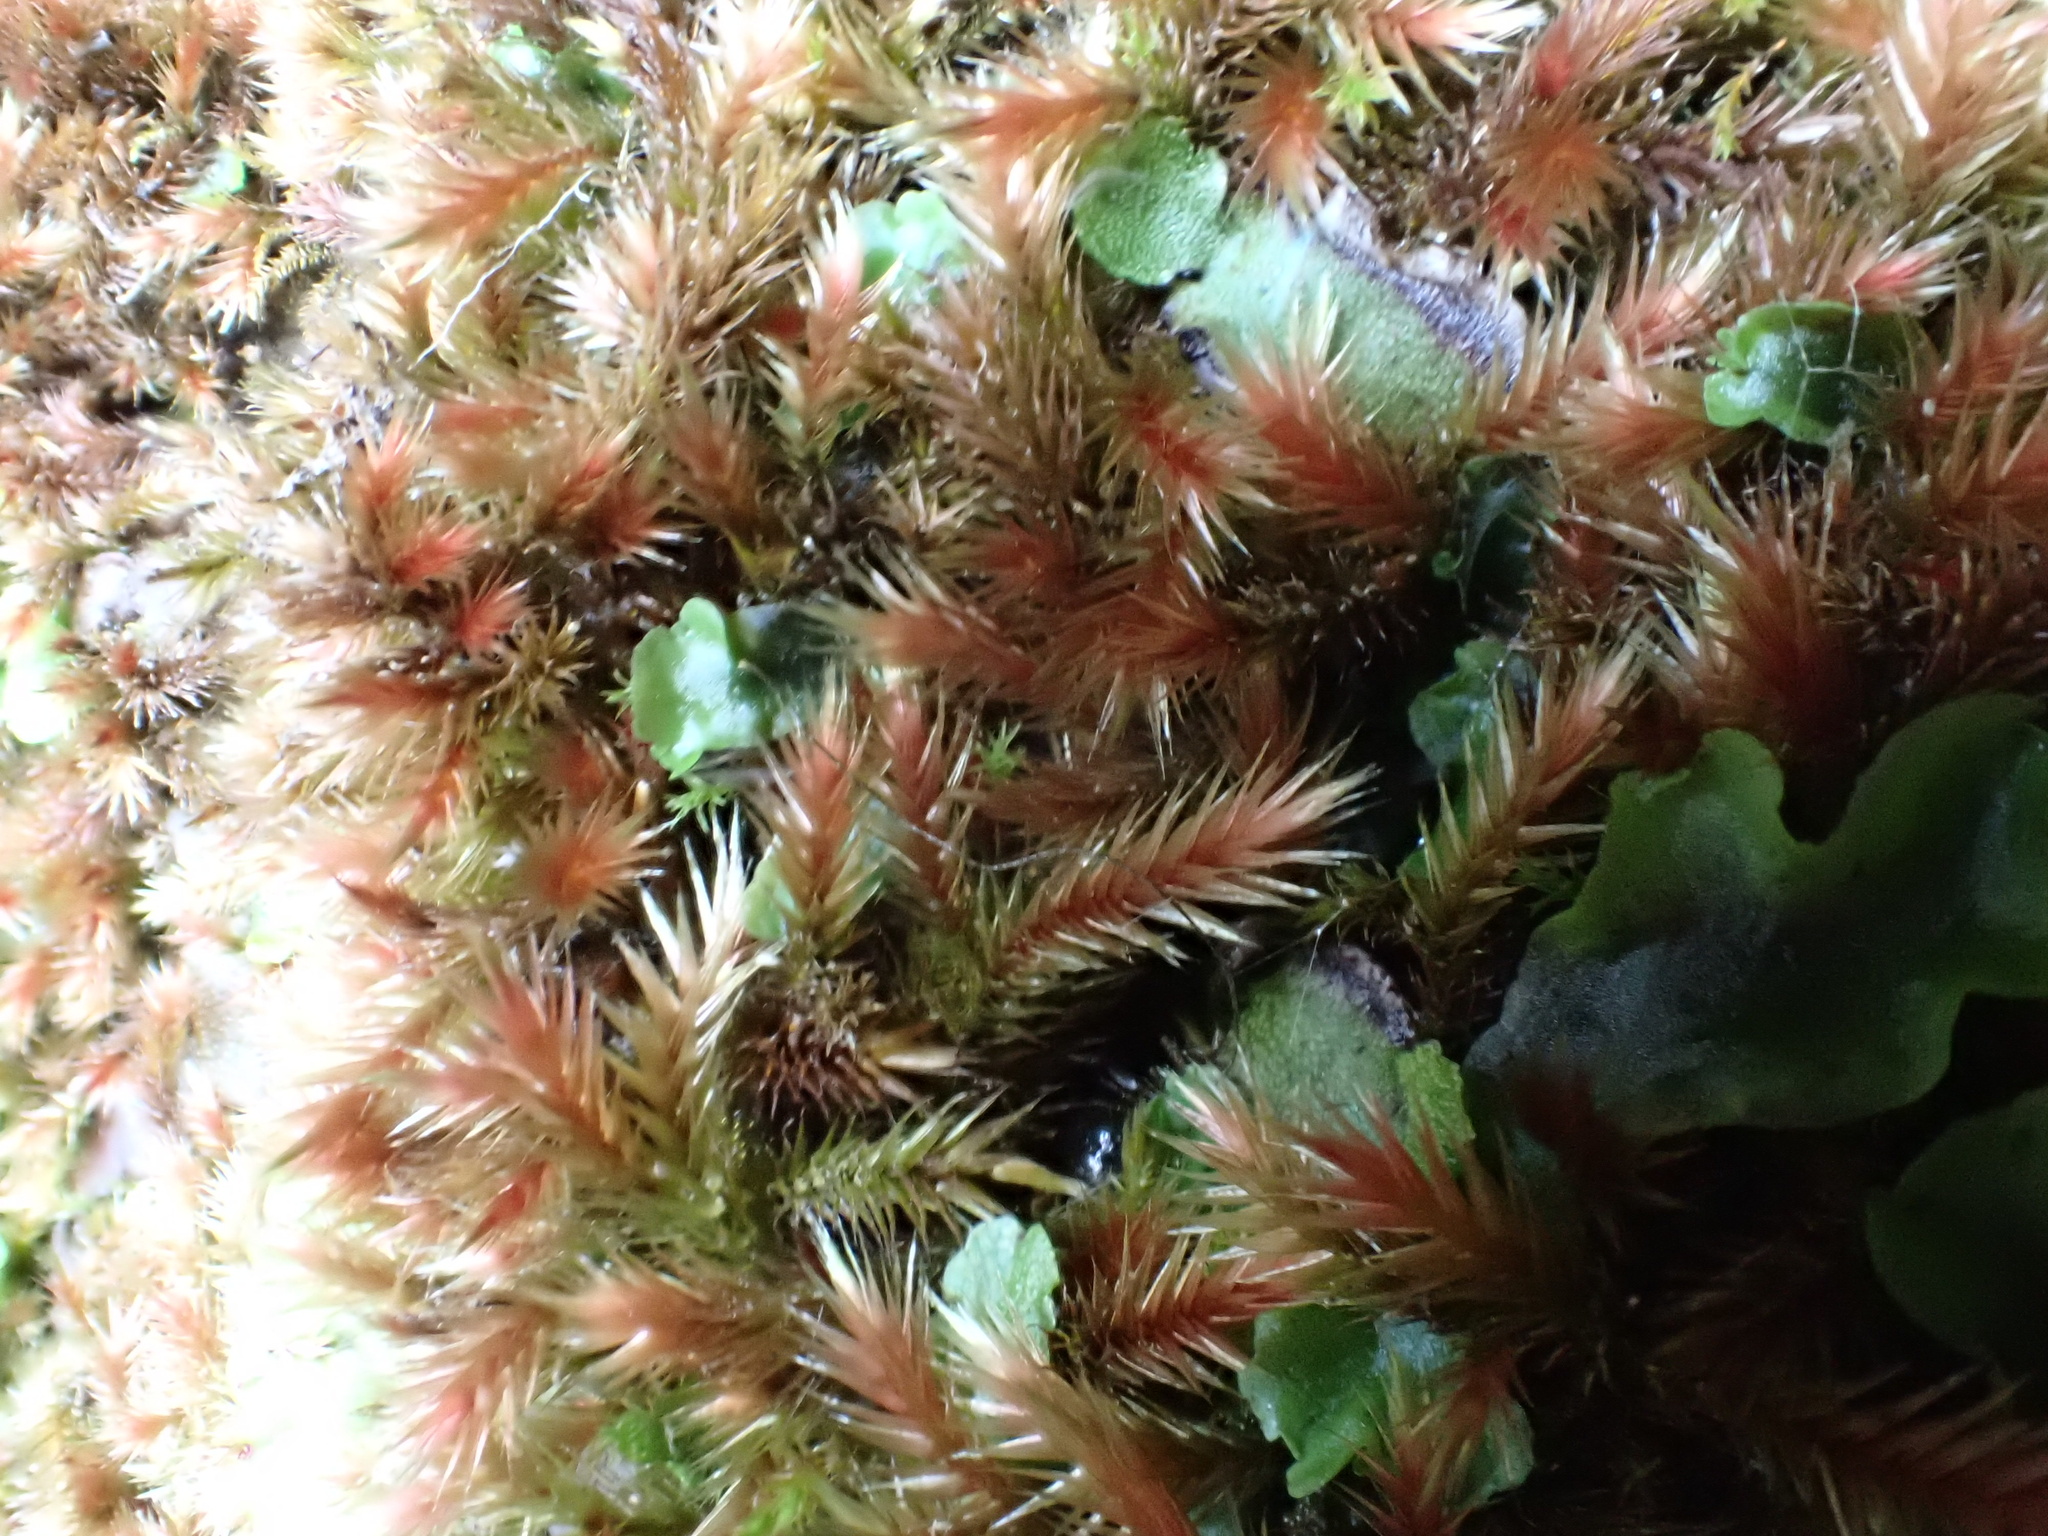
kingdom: Plantae
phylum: Bryophyta
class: Bryopsida
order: Hypnales
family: Plagiotheciaceae
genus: Orthothecium
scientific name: Orthothecium rufescens
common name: Red leskea
